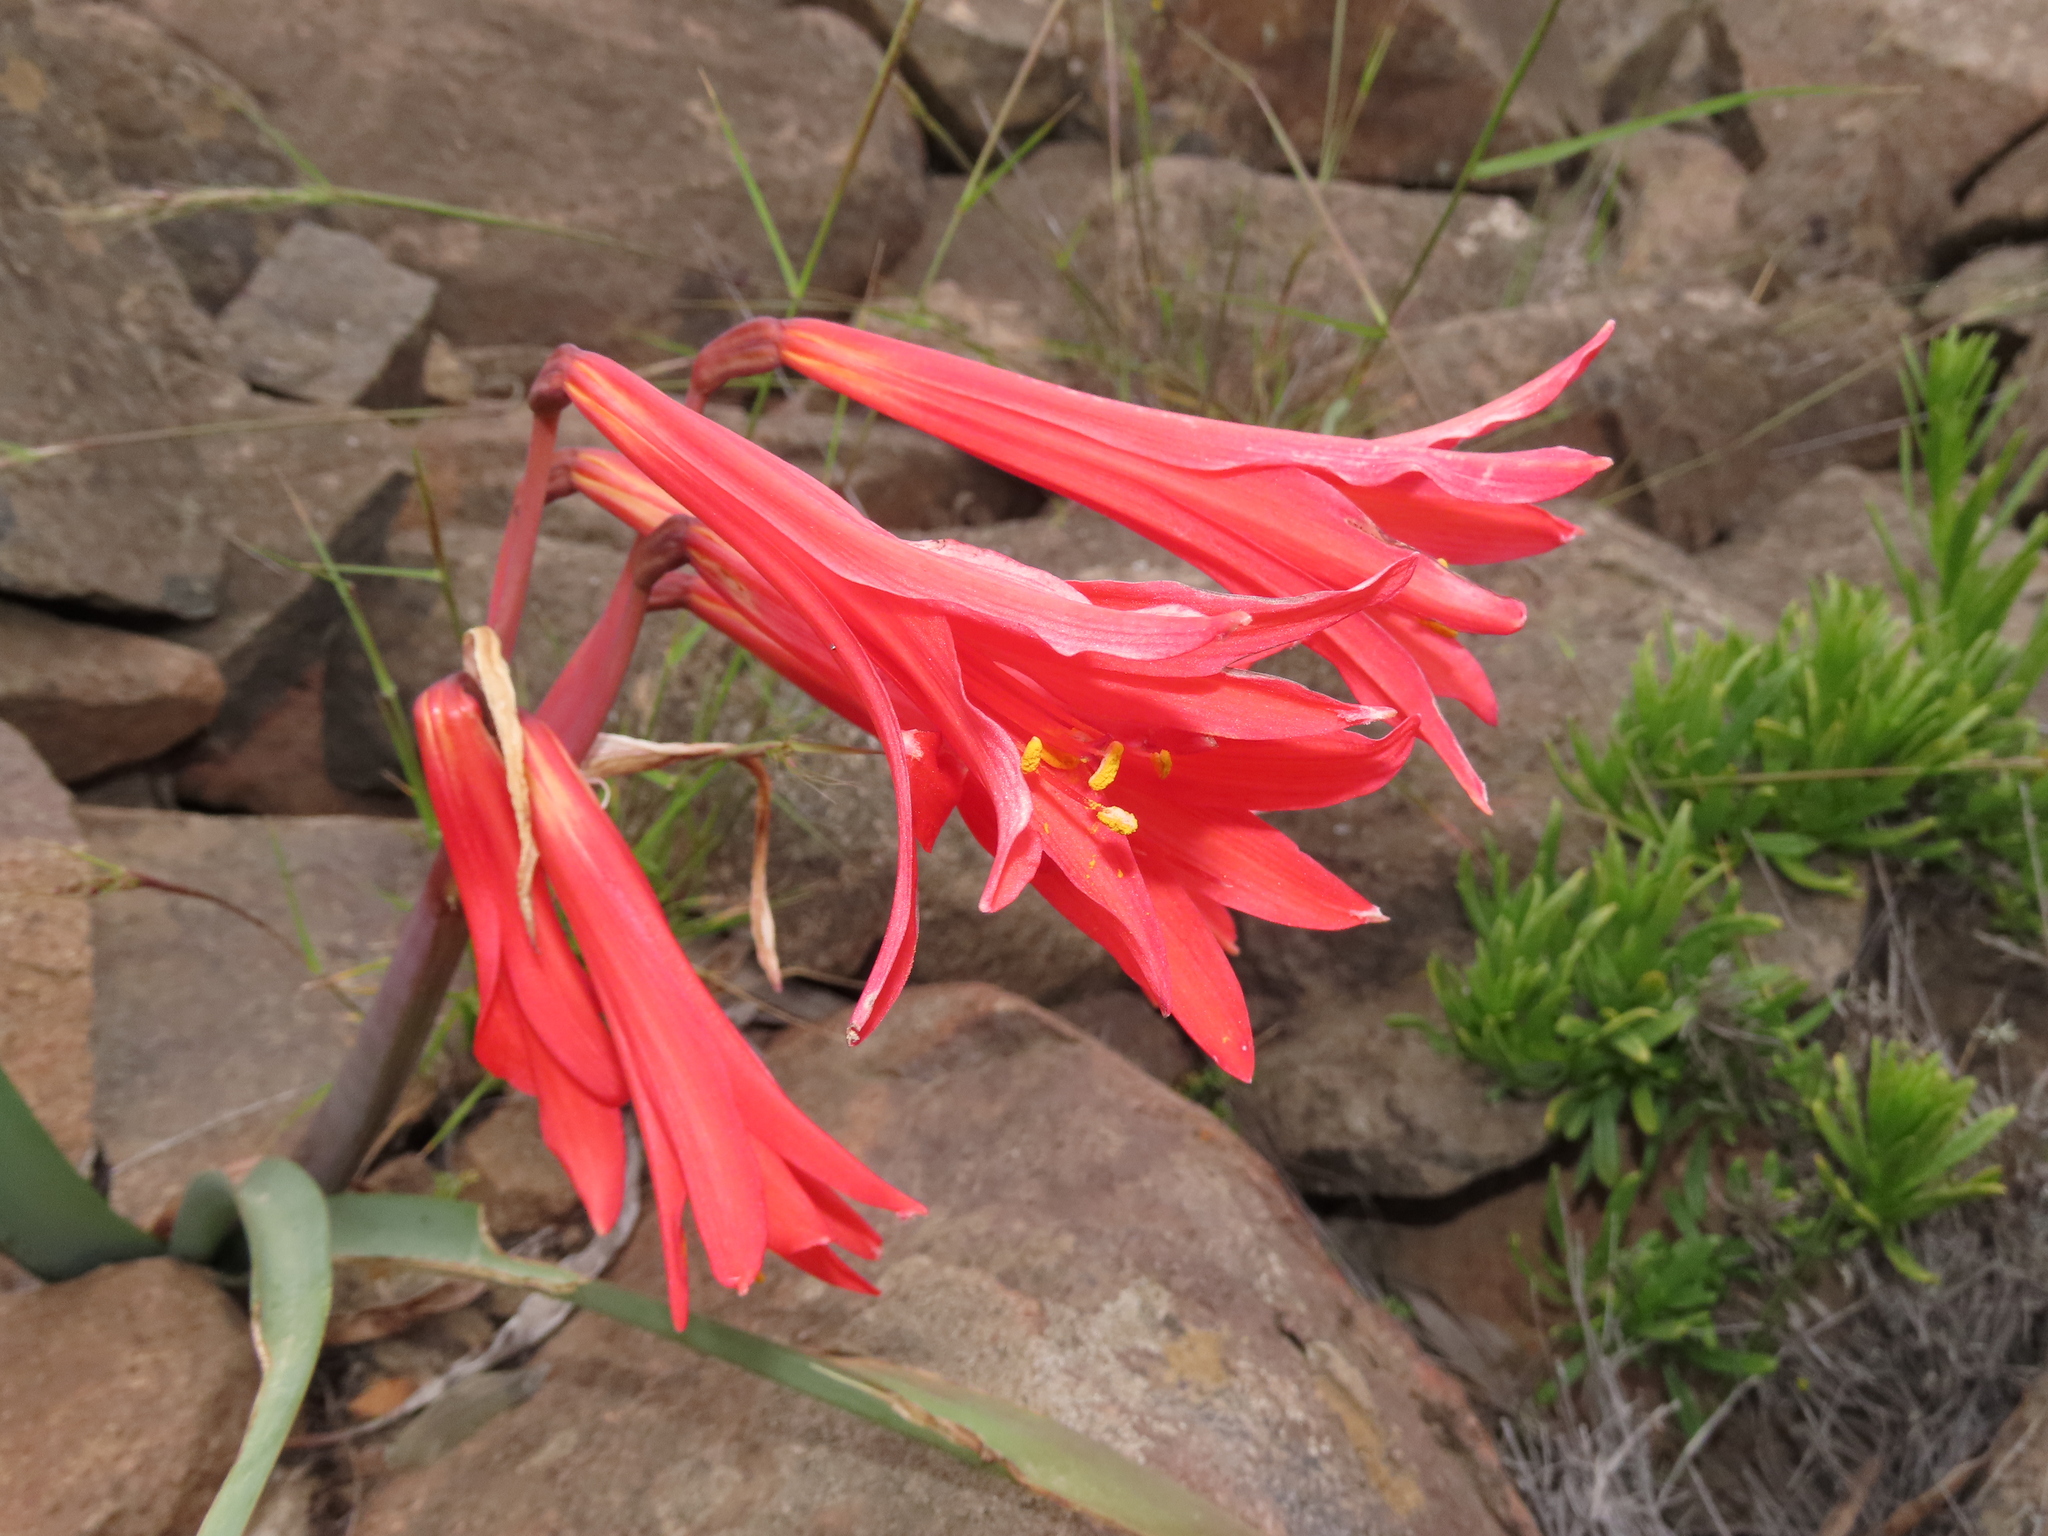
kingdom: Plantae
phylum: Tracheophyta
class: Liliopsida
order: Asparagales
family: Amaryllidaceae
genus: Zephyranthes
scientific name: Zephyranthes phycelloides
